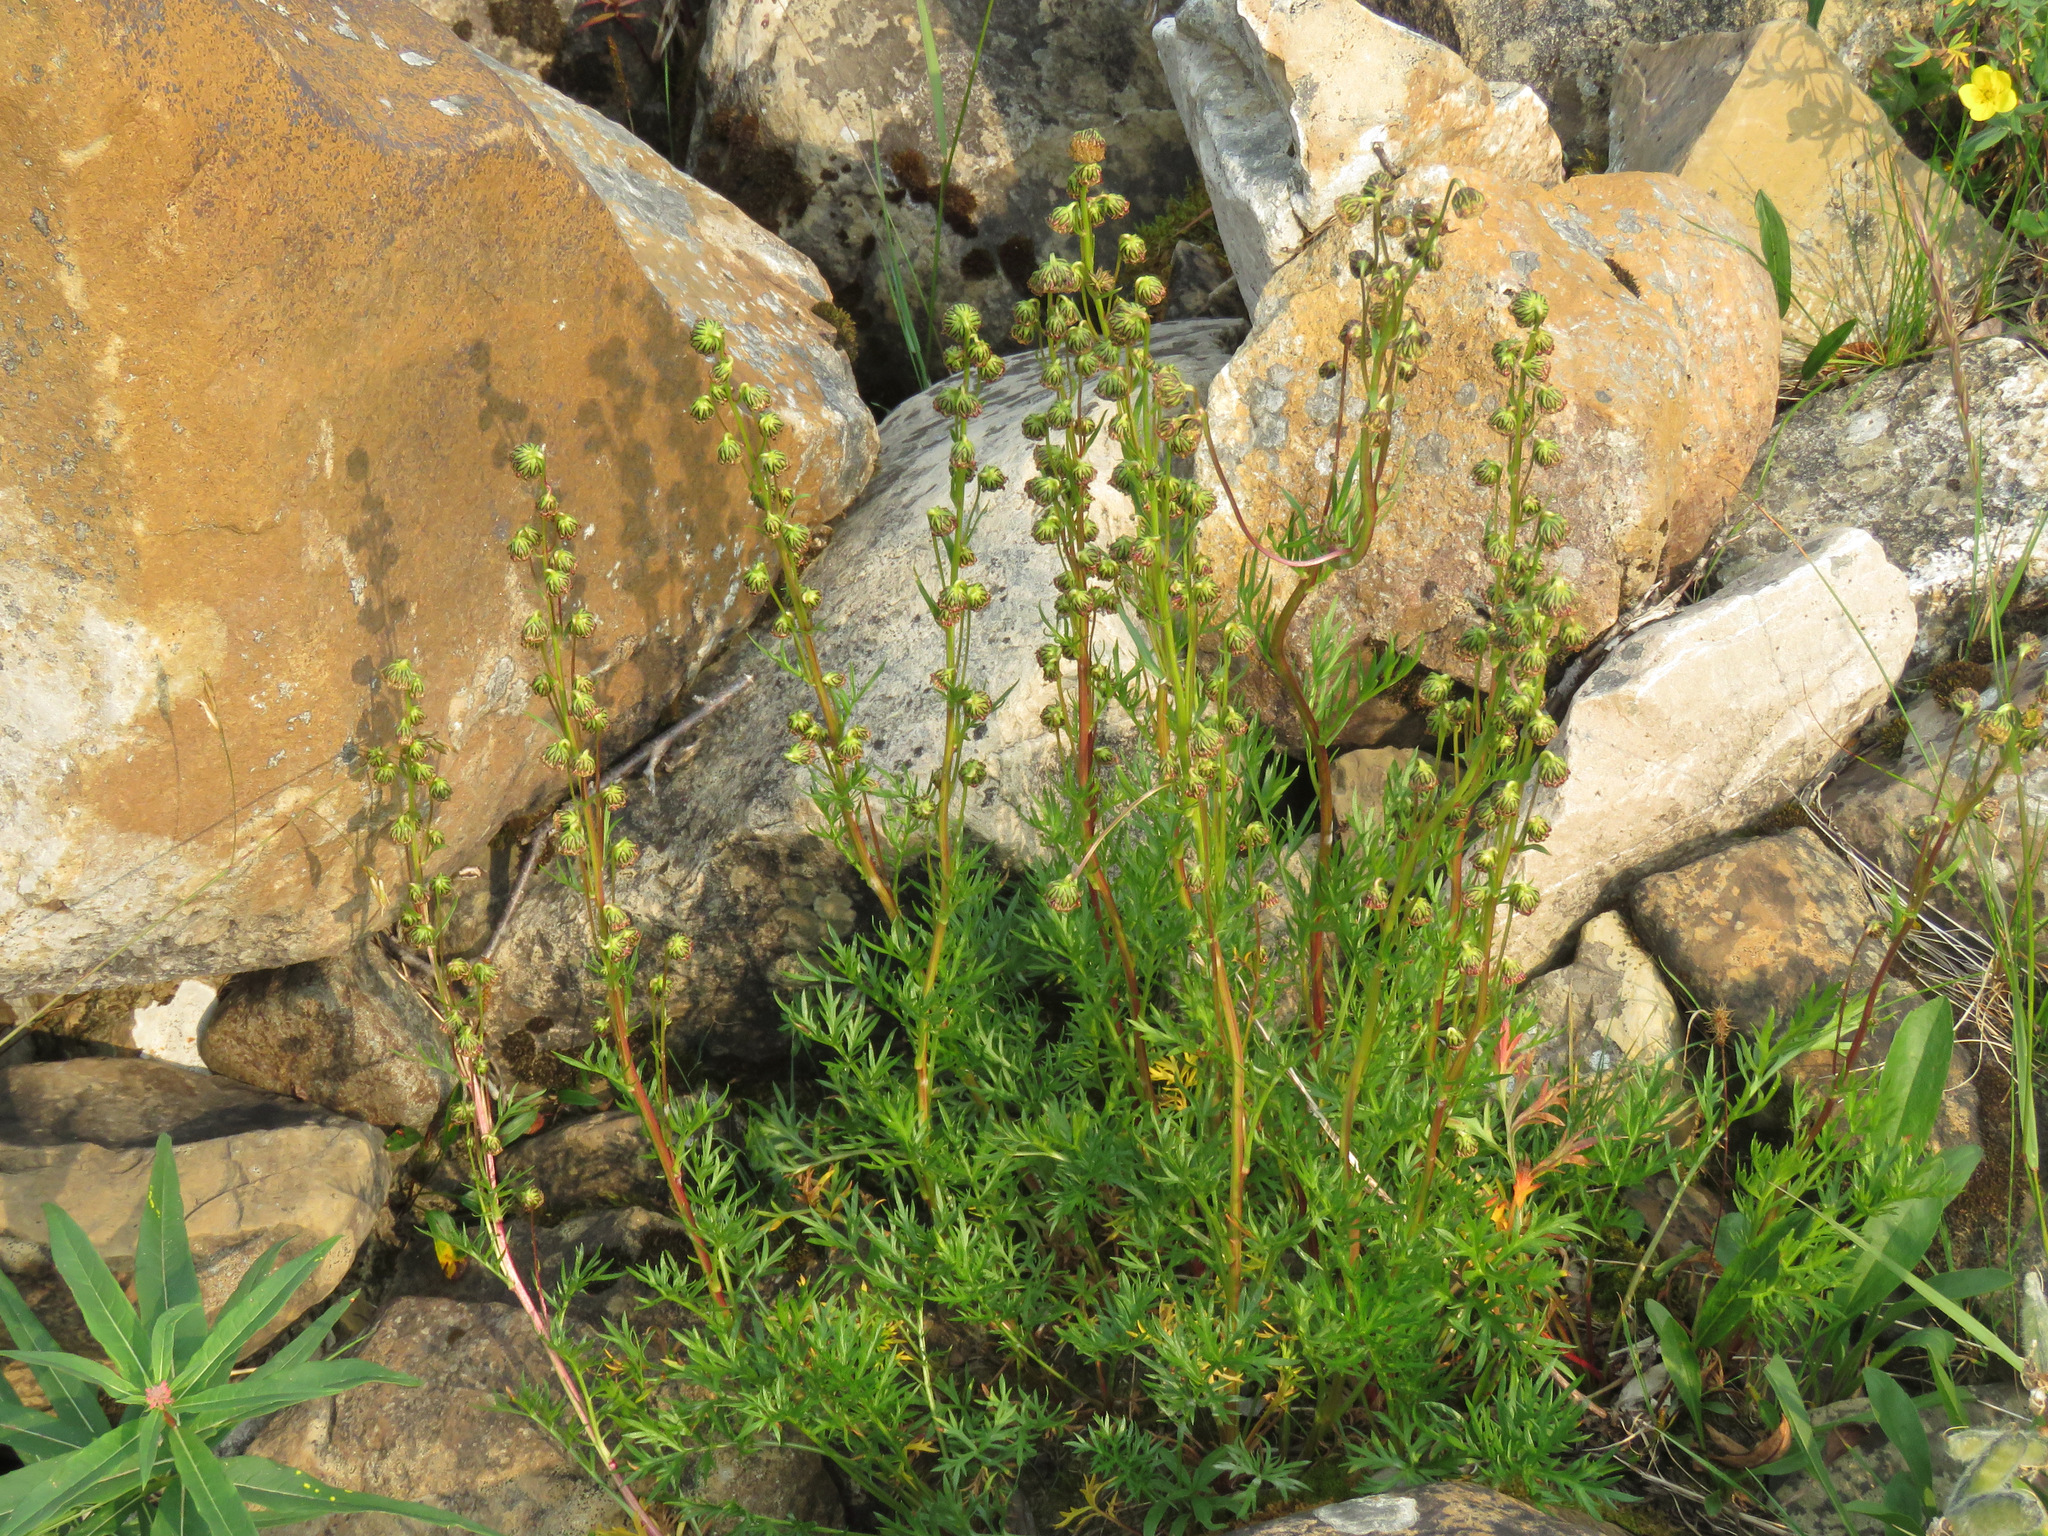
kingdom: Plantae
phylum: Tracheophyta
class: Magnoliopsida
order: Asterales
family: Asteraceae
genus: Artemisia
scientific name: Artemisia norvegica
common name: Norwegian mugwort
